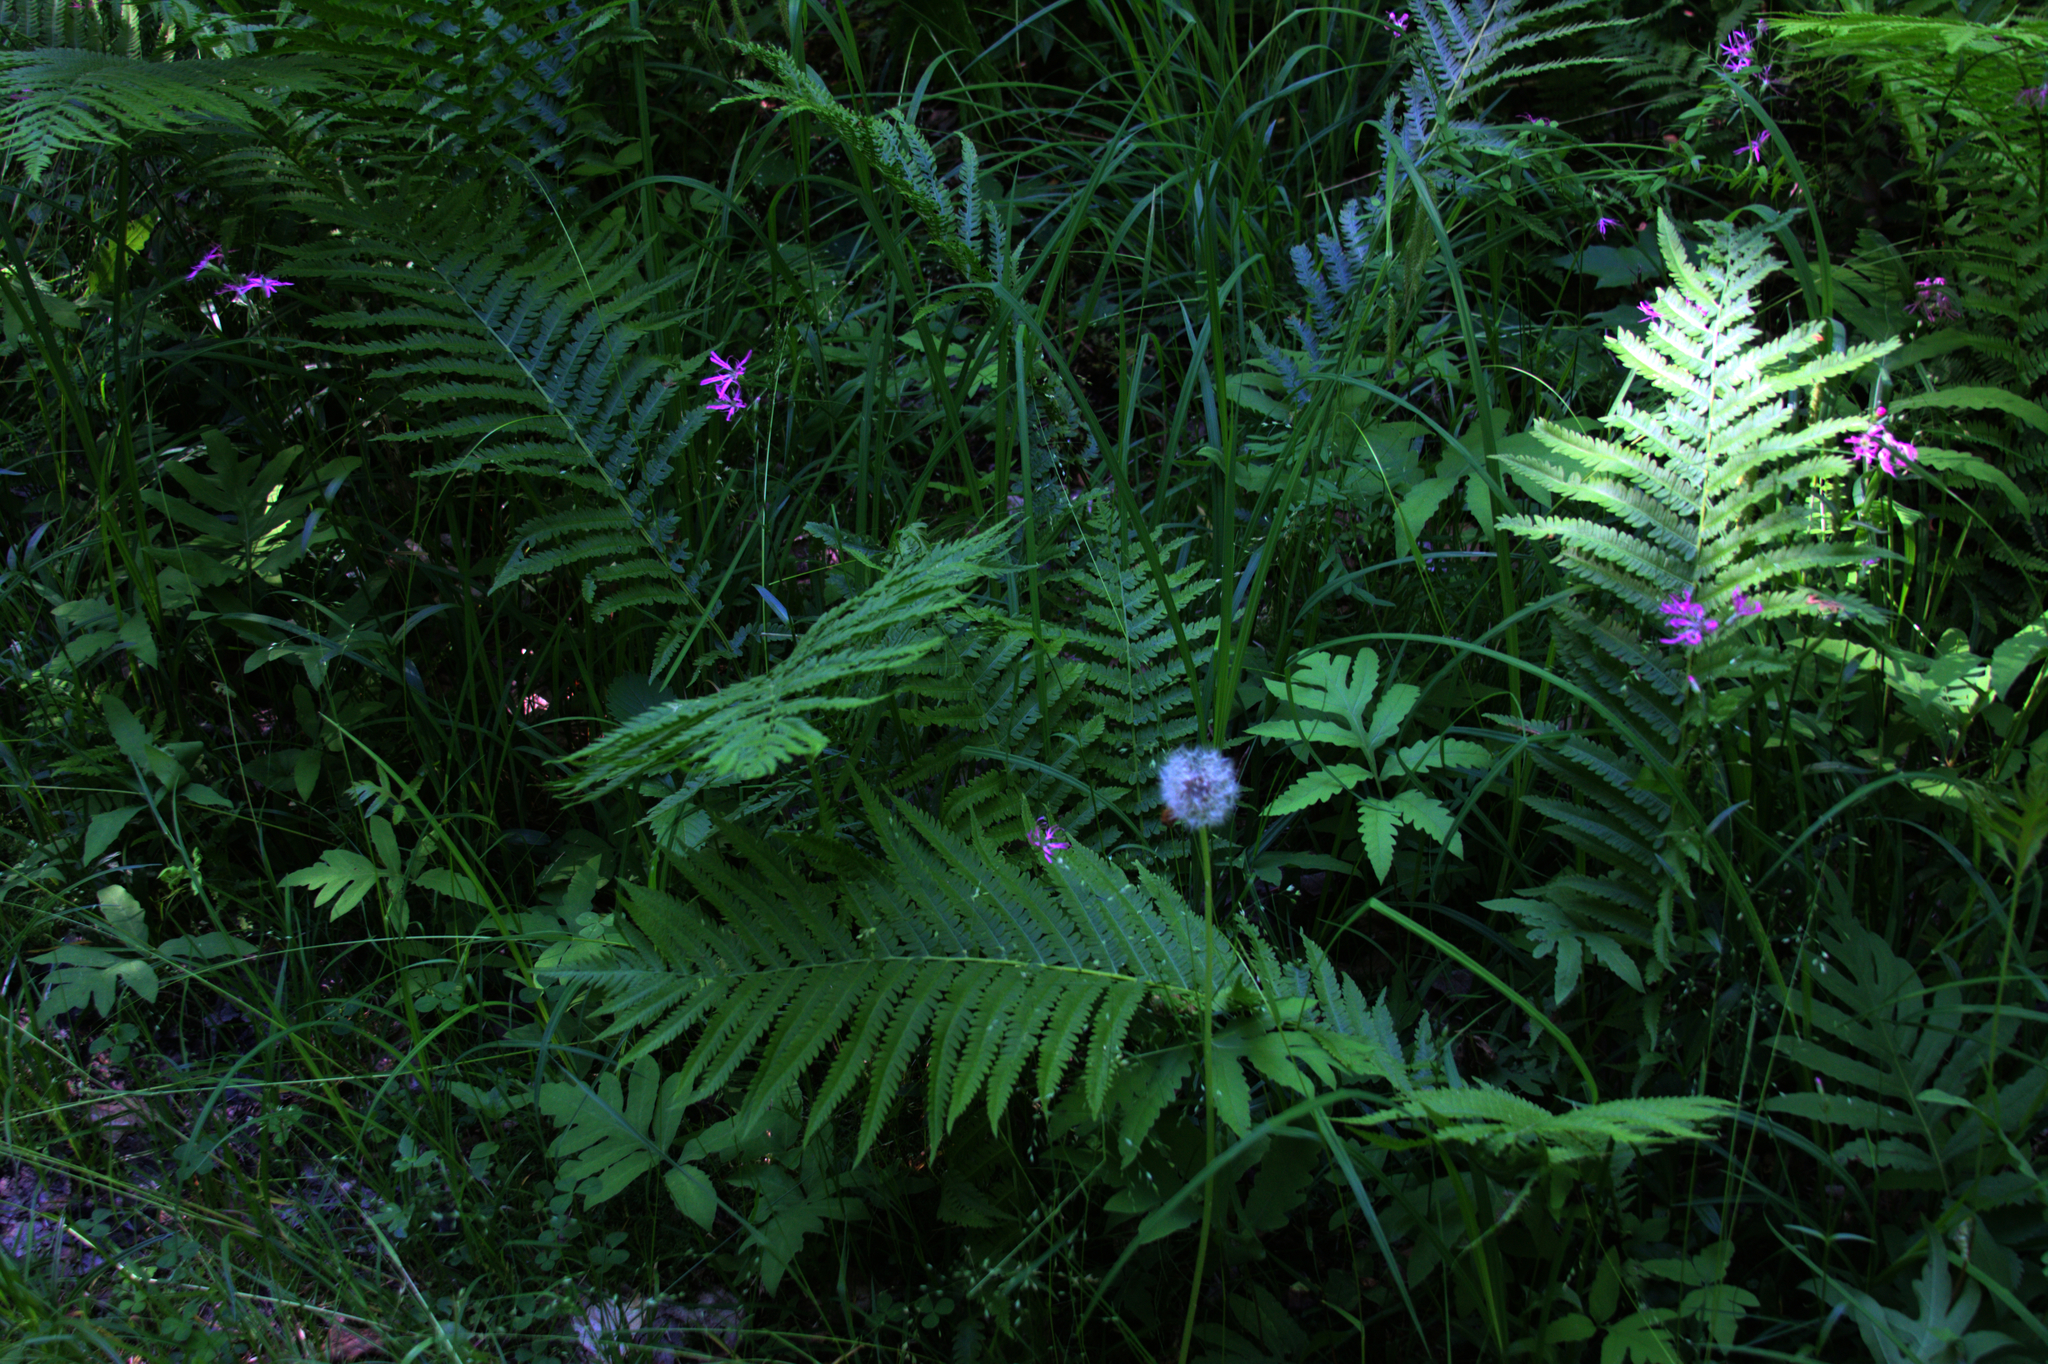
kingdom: Plantae
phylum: Tracheophyta
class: Polypodiopsida
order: Polypodiales
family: Onocleaceae
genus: Matteuccia
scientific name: Matteuccia struthiopteris
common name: Ostrich fern
